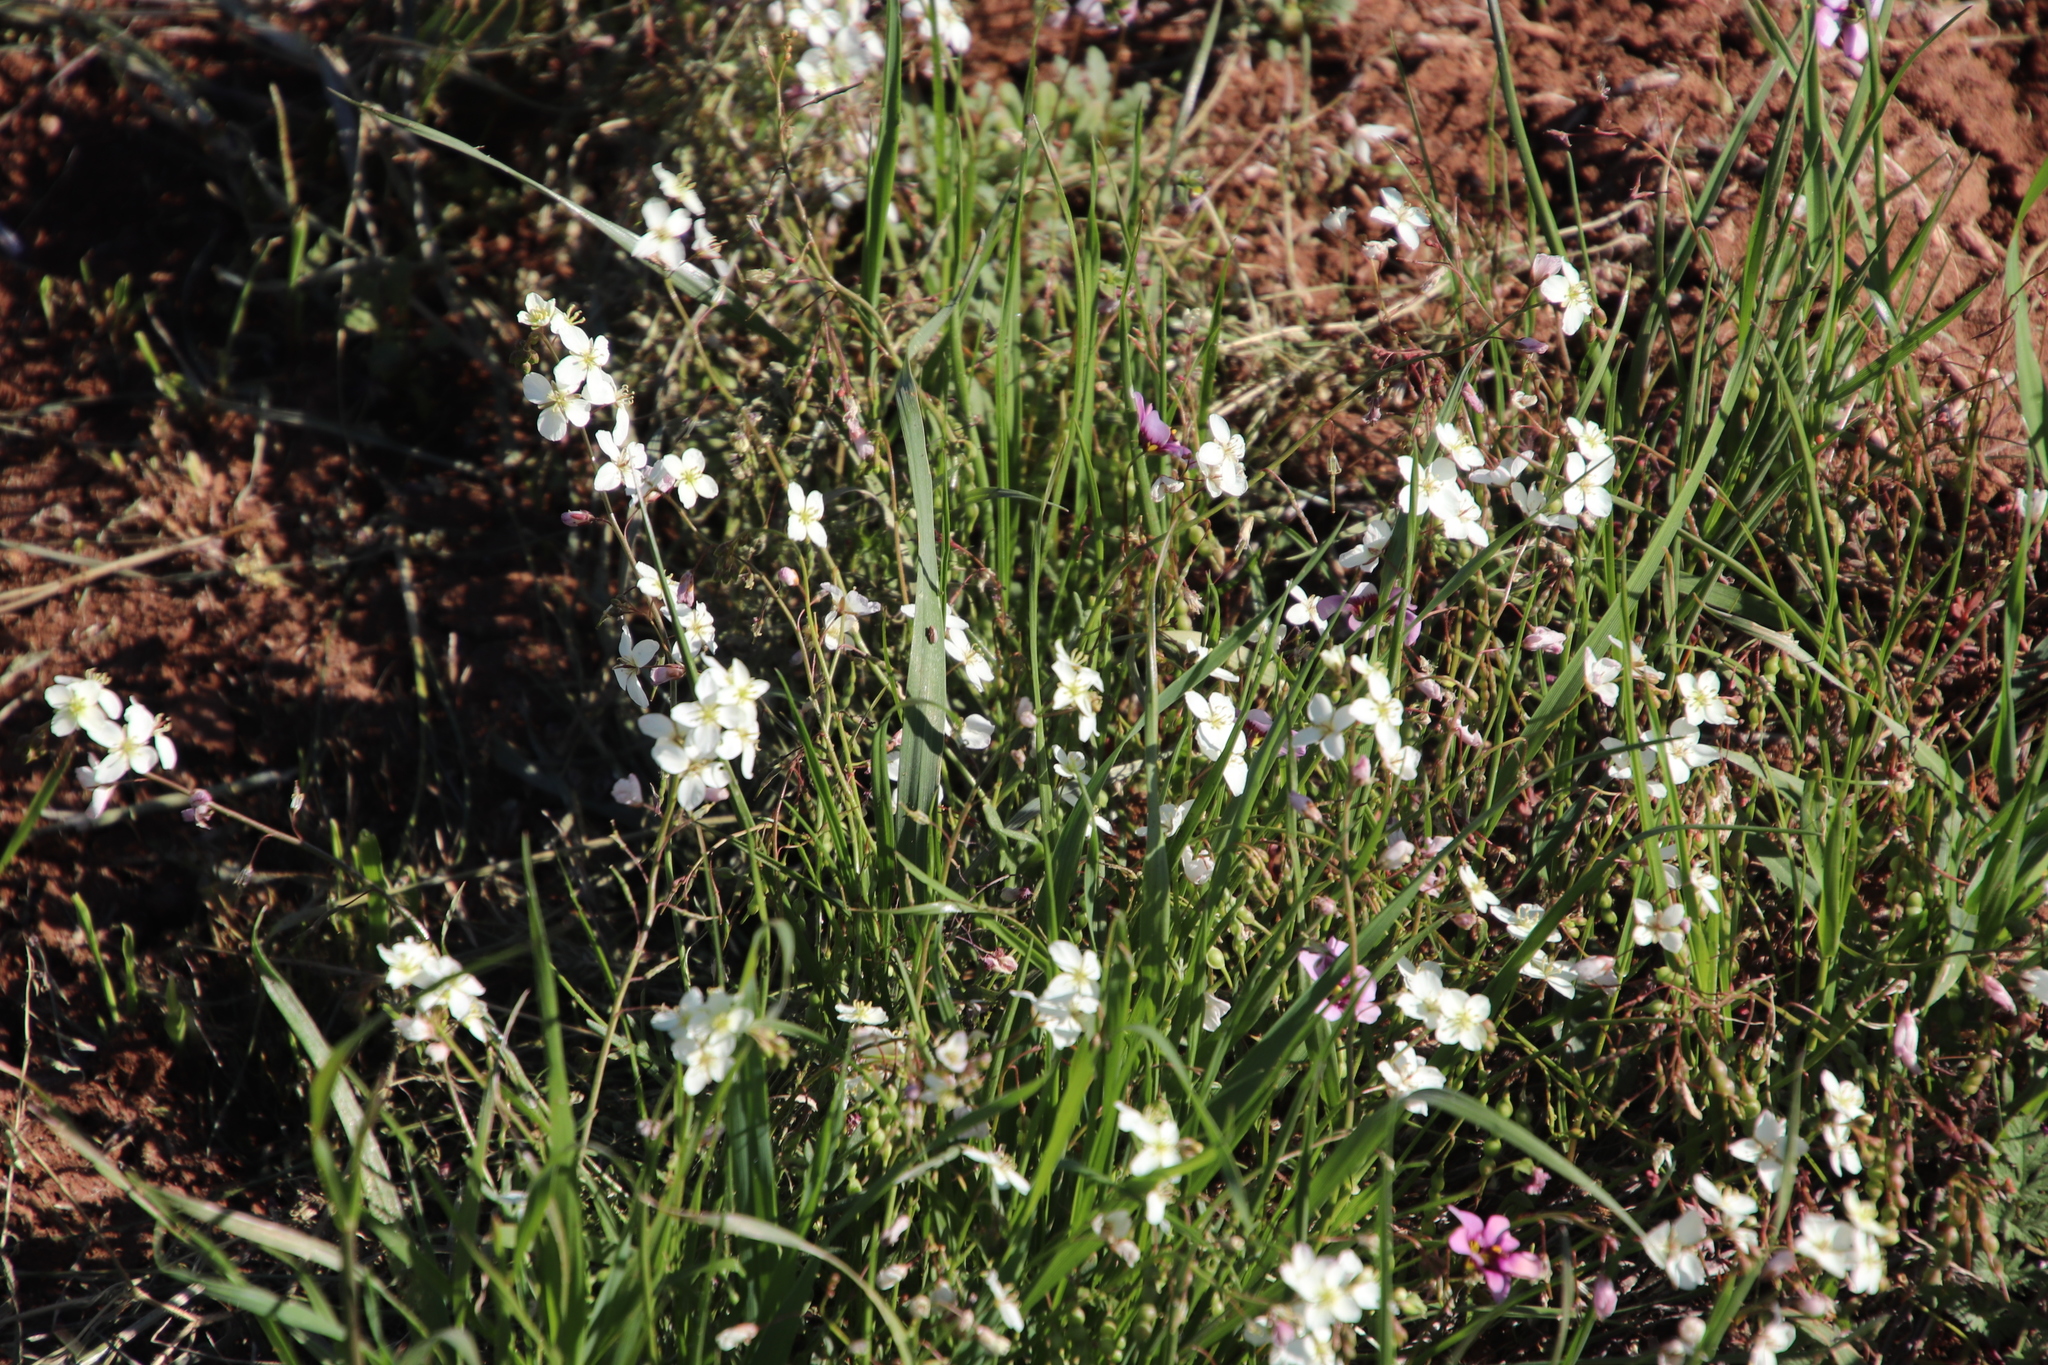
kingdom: Plantae
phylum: Tracheophyta
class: Magnoliopsida
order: Brassicales
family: Brassicaceae
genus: Heliophila
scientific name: Heliophila collina
